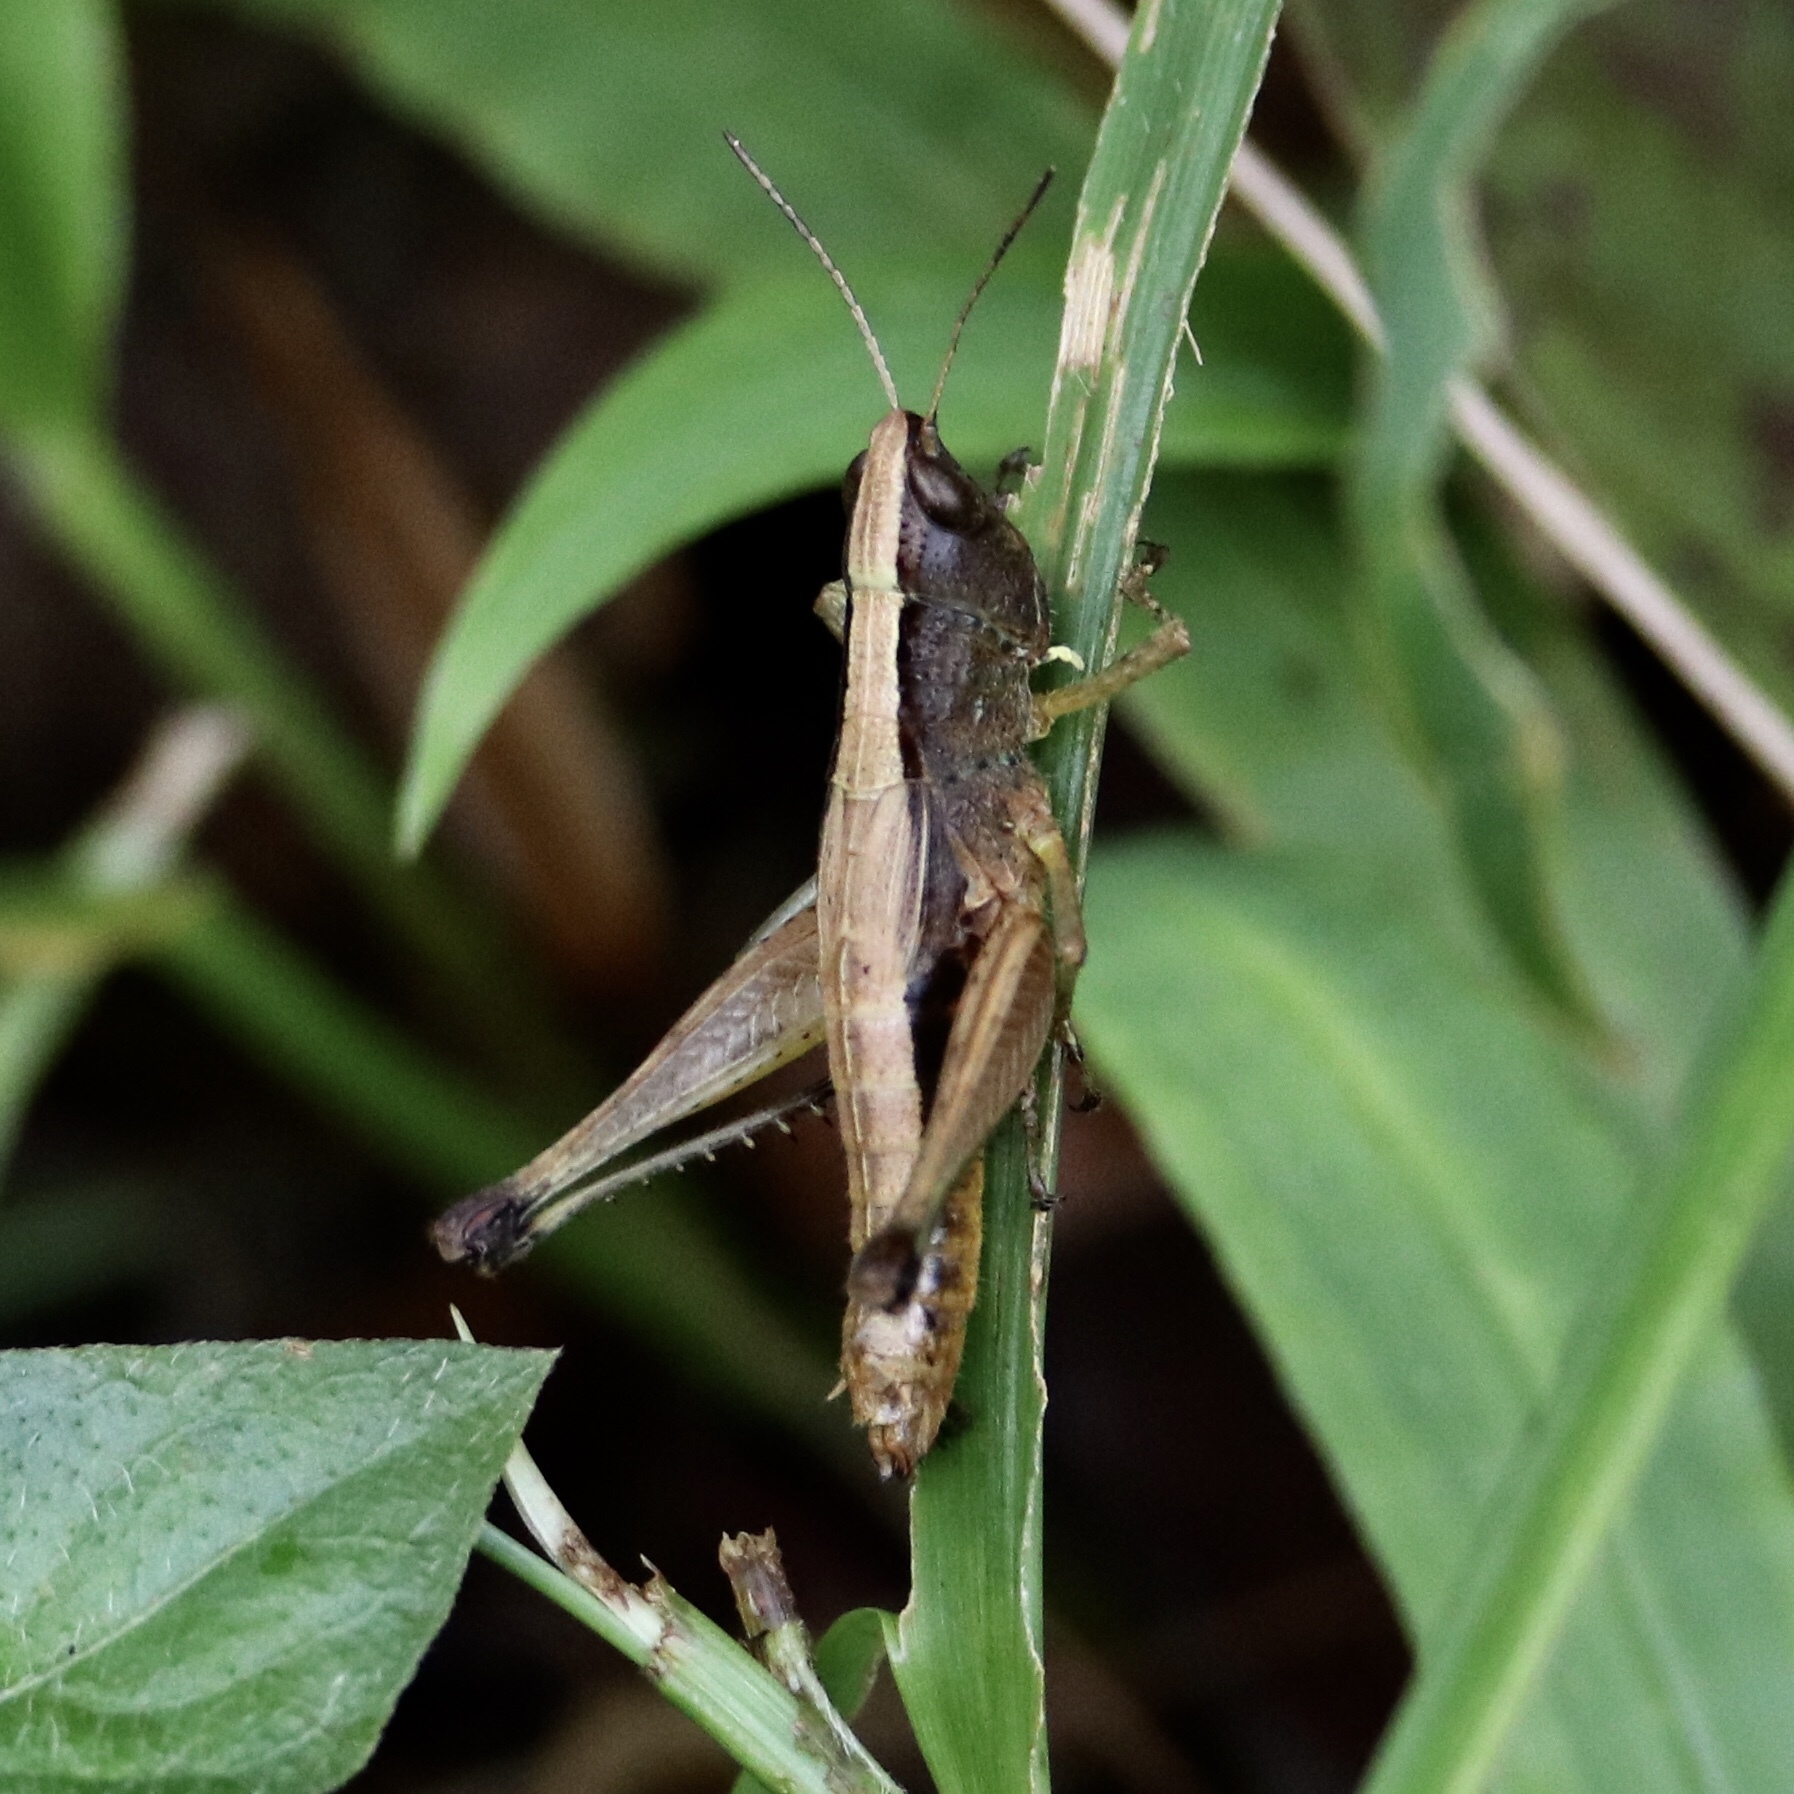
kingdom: Animalia
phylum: Arthropoda
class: Insecta
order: Orthoptera
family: Acrididae
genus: Silvitettix
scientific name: Silvitettix centralis
